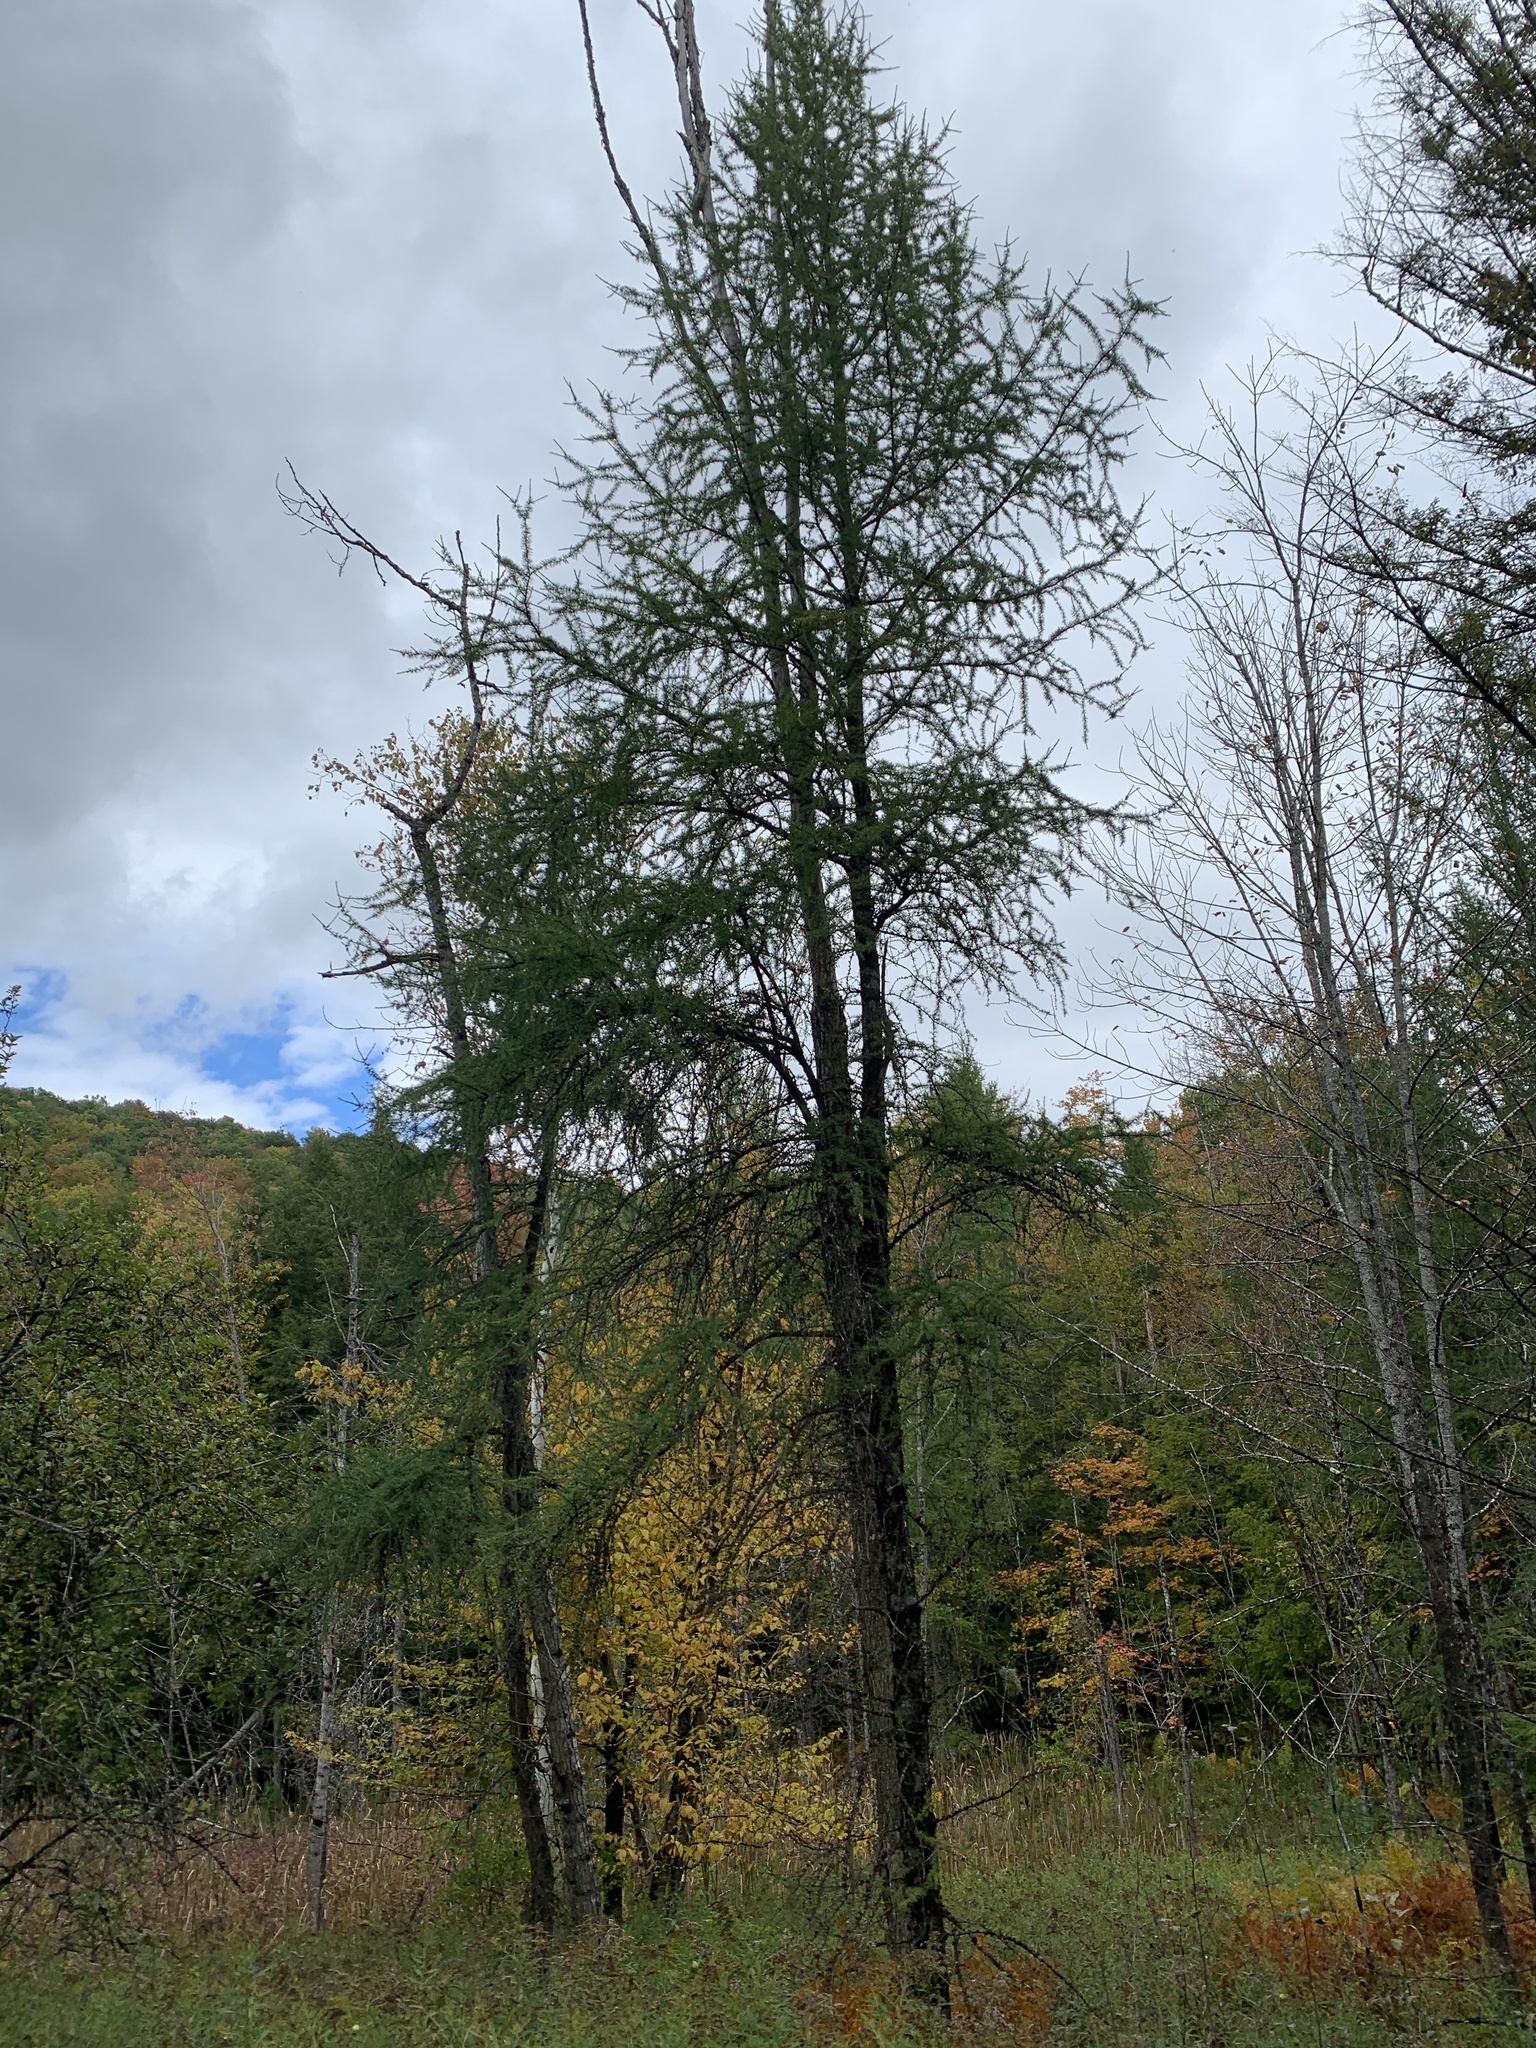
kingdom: Plantae
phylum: Tracheophyta
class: Pinopsida
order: Pinales
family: Pinaceae
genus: Larix
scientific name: Larix laricina
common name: American larch
